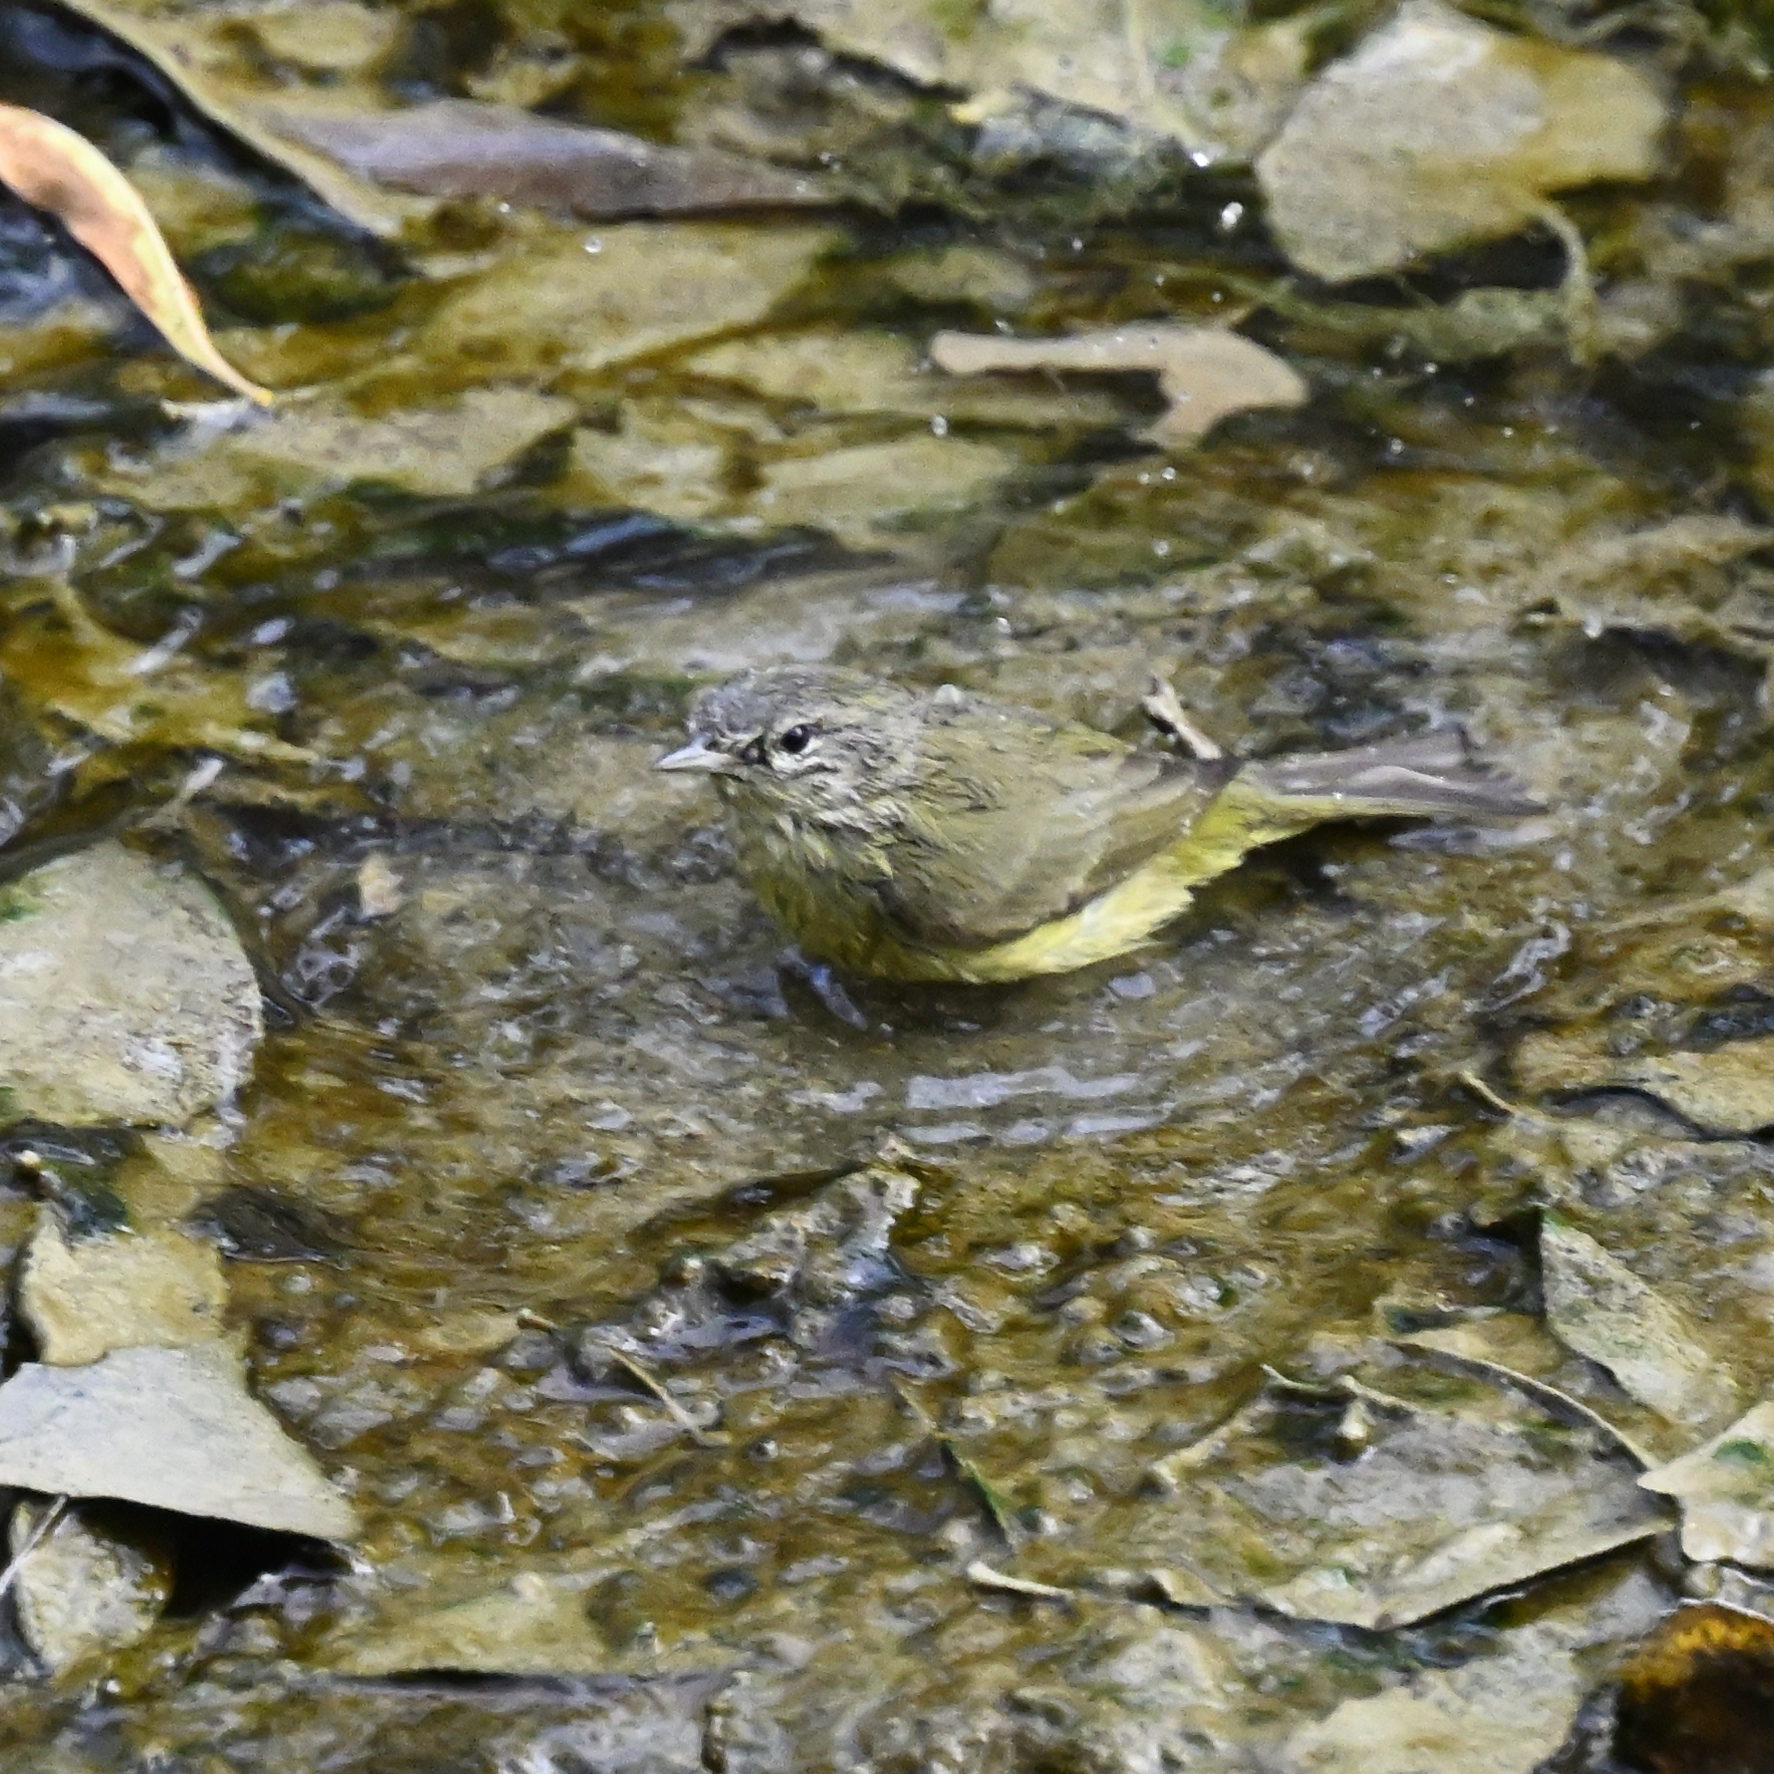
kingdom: Animalia
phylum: Chordata
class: Aves
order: Passeriformes
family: Parulidae
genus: Leiothlypis
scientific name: Leiothlypis celata
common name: Orange-crowned warbler
